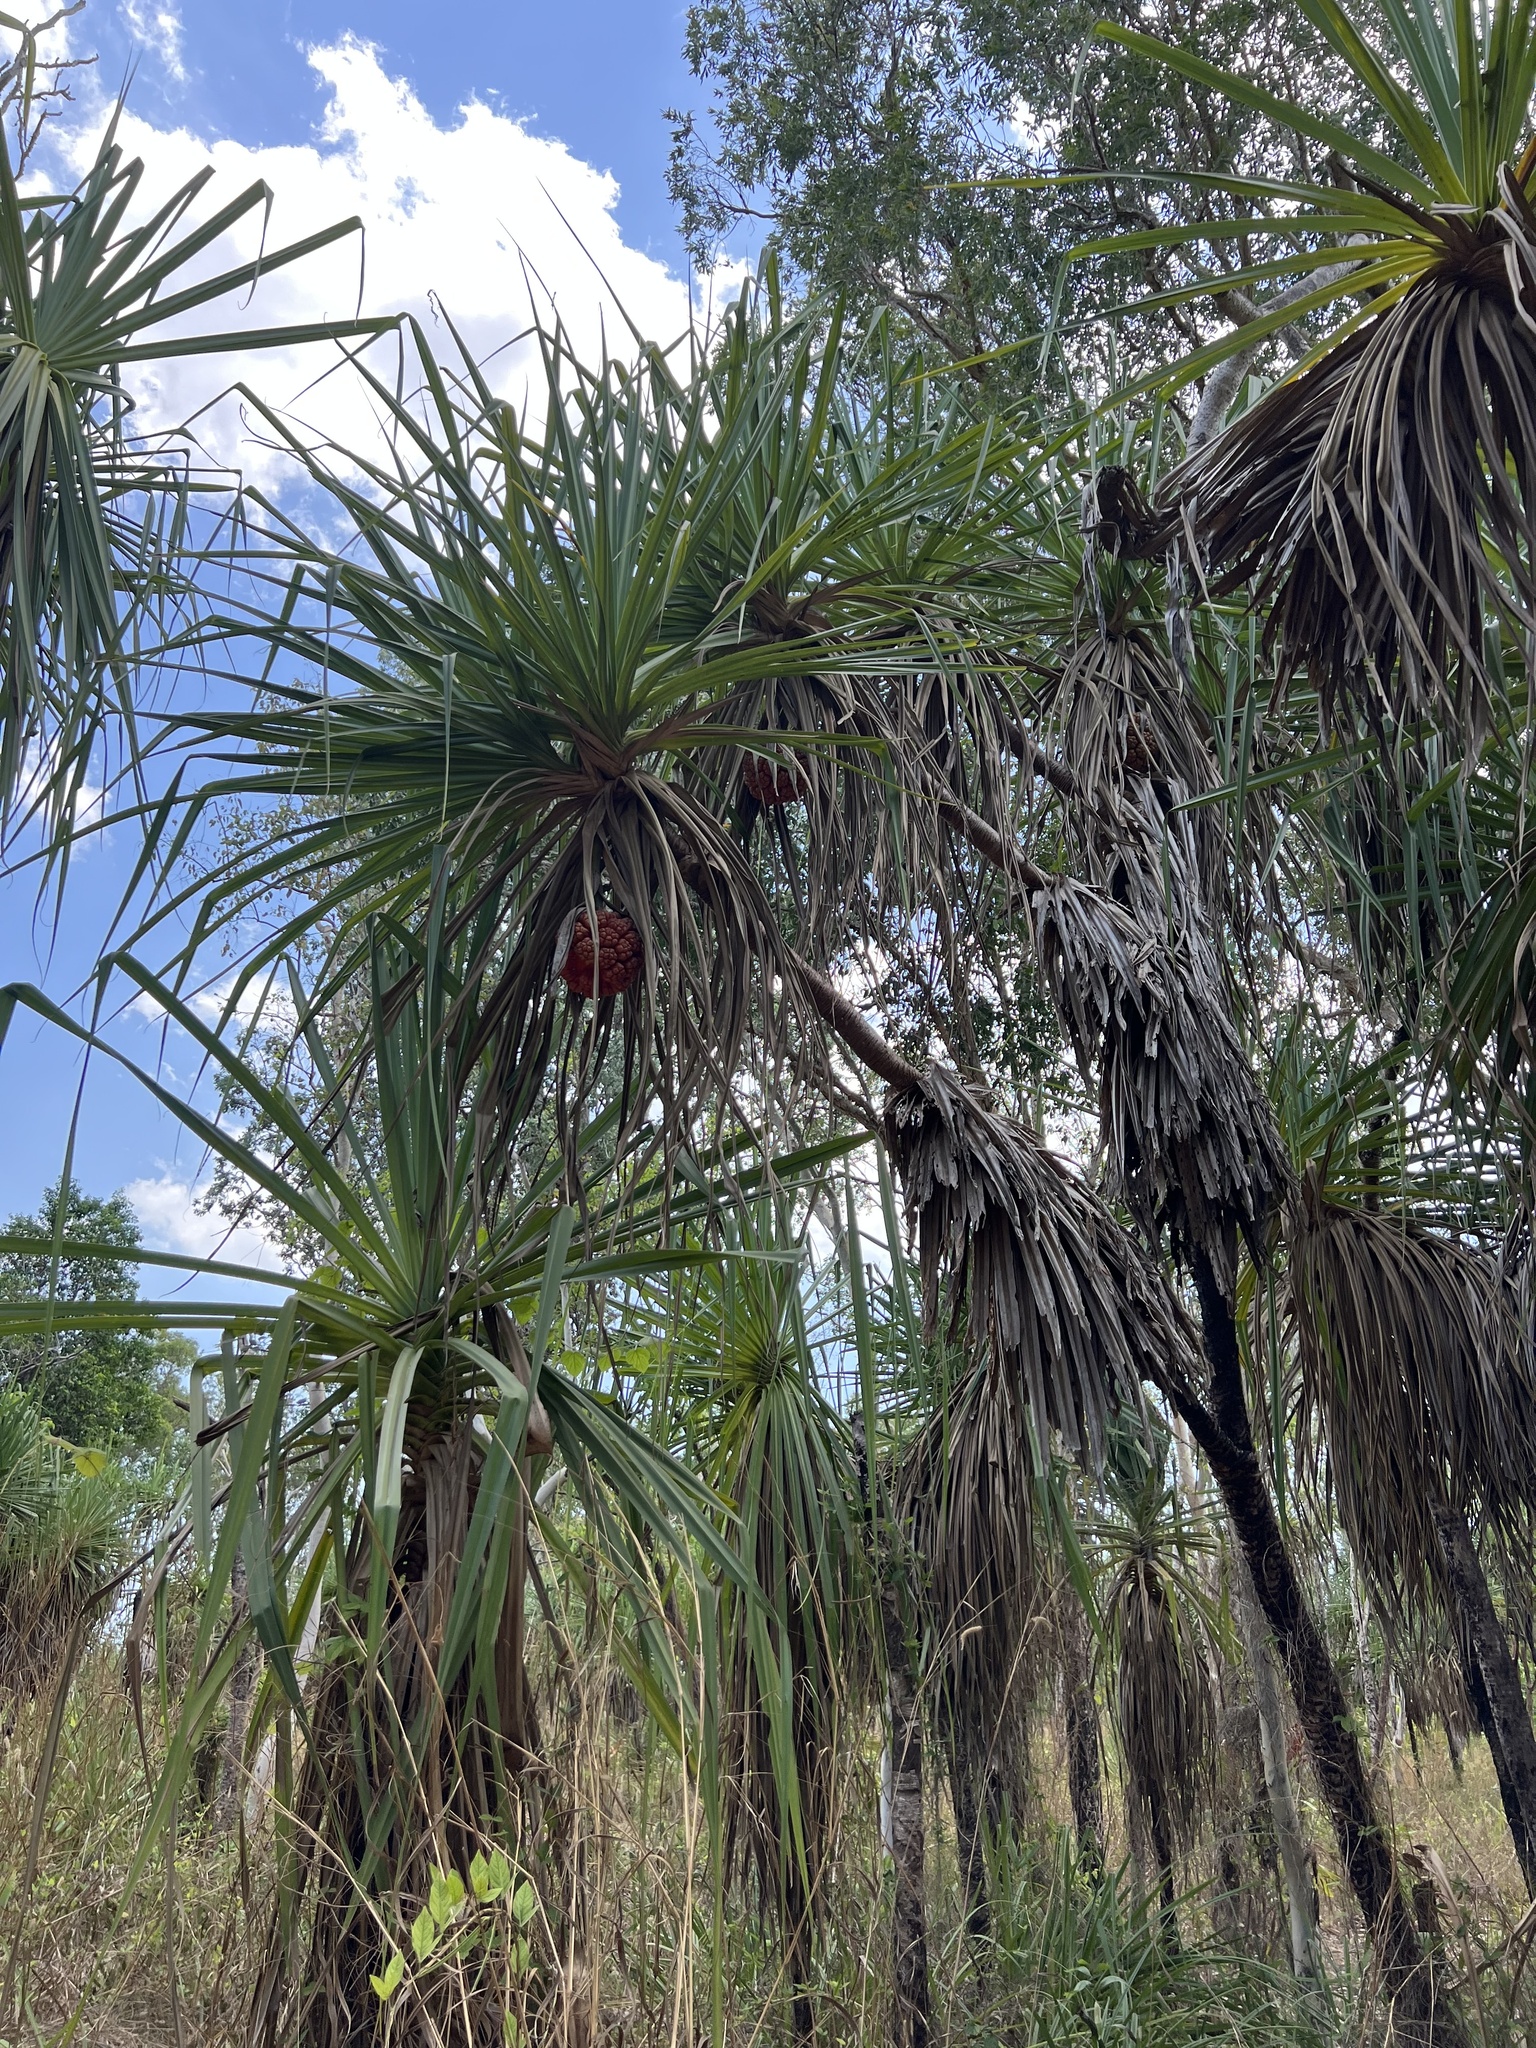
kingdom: Plantae
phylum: Tracheophyta
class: Liliopsida
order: Pandanales
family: Pandanaceae
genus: Pandanus
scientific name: Pandanus spiralis
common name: Screw-pine
